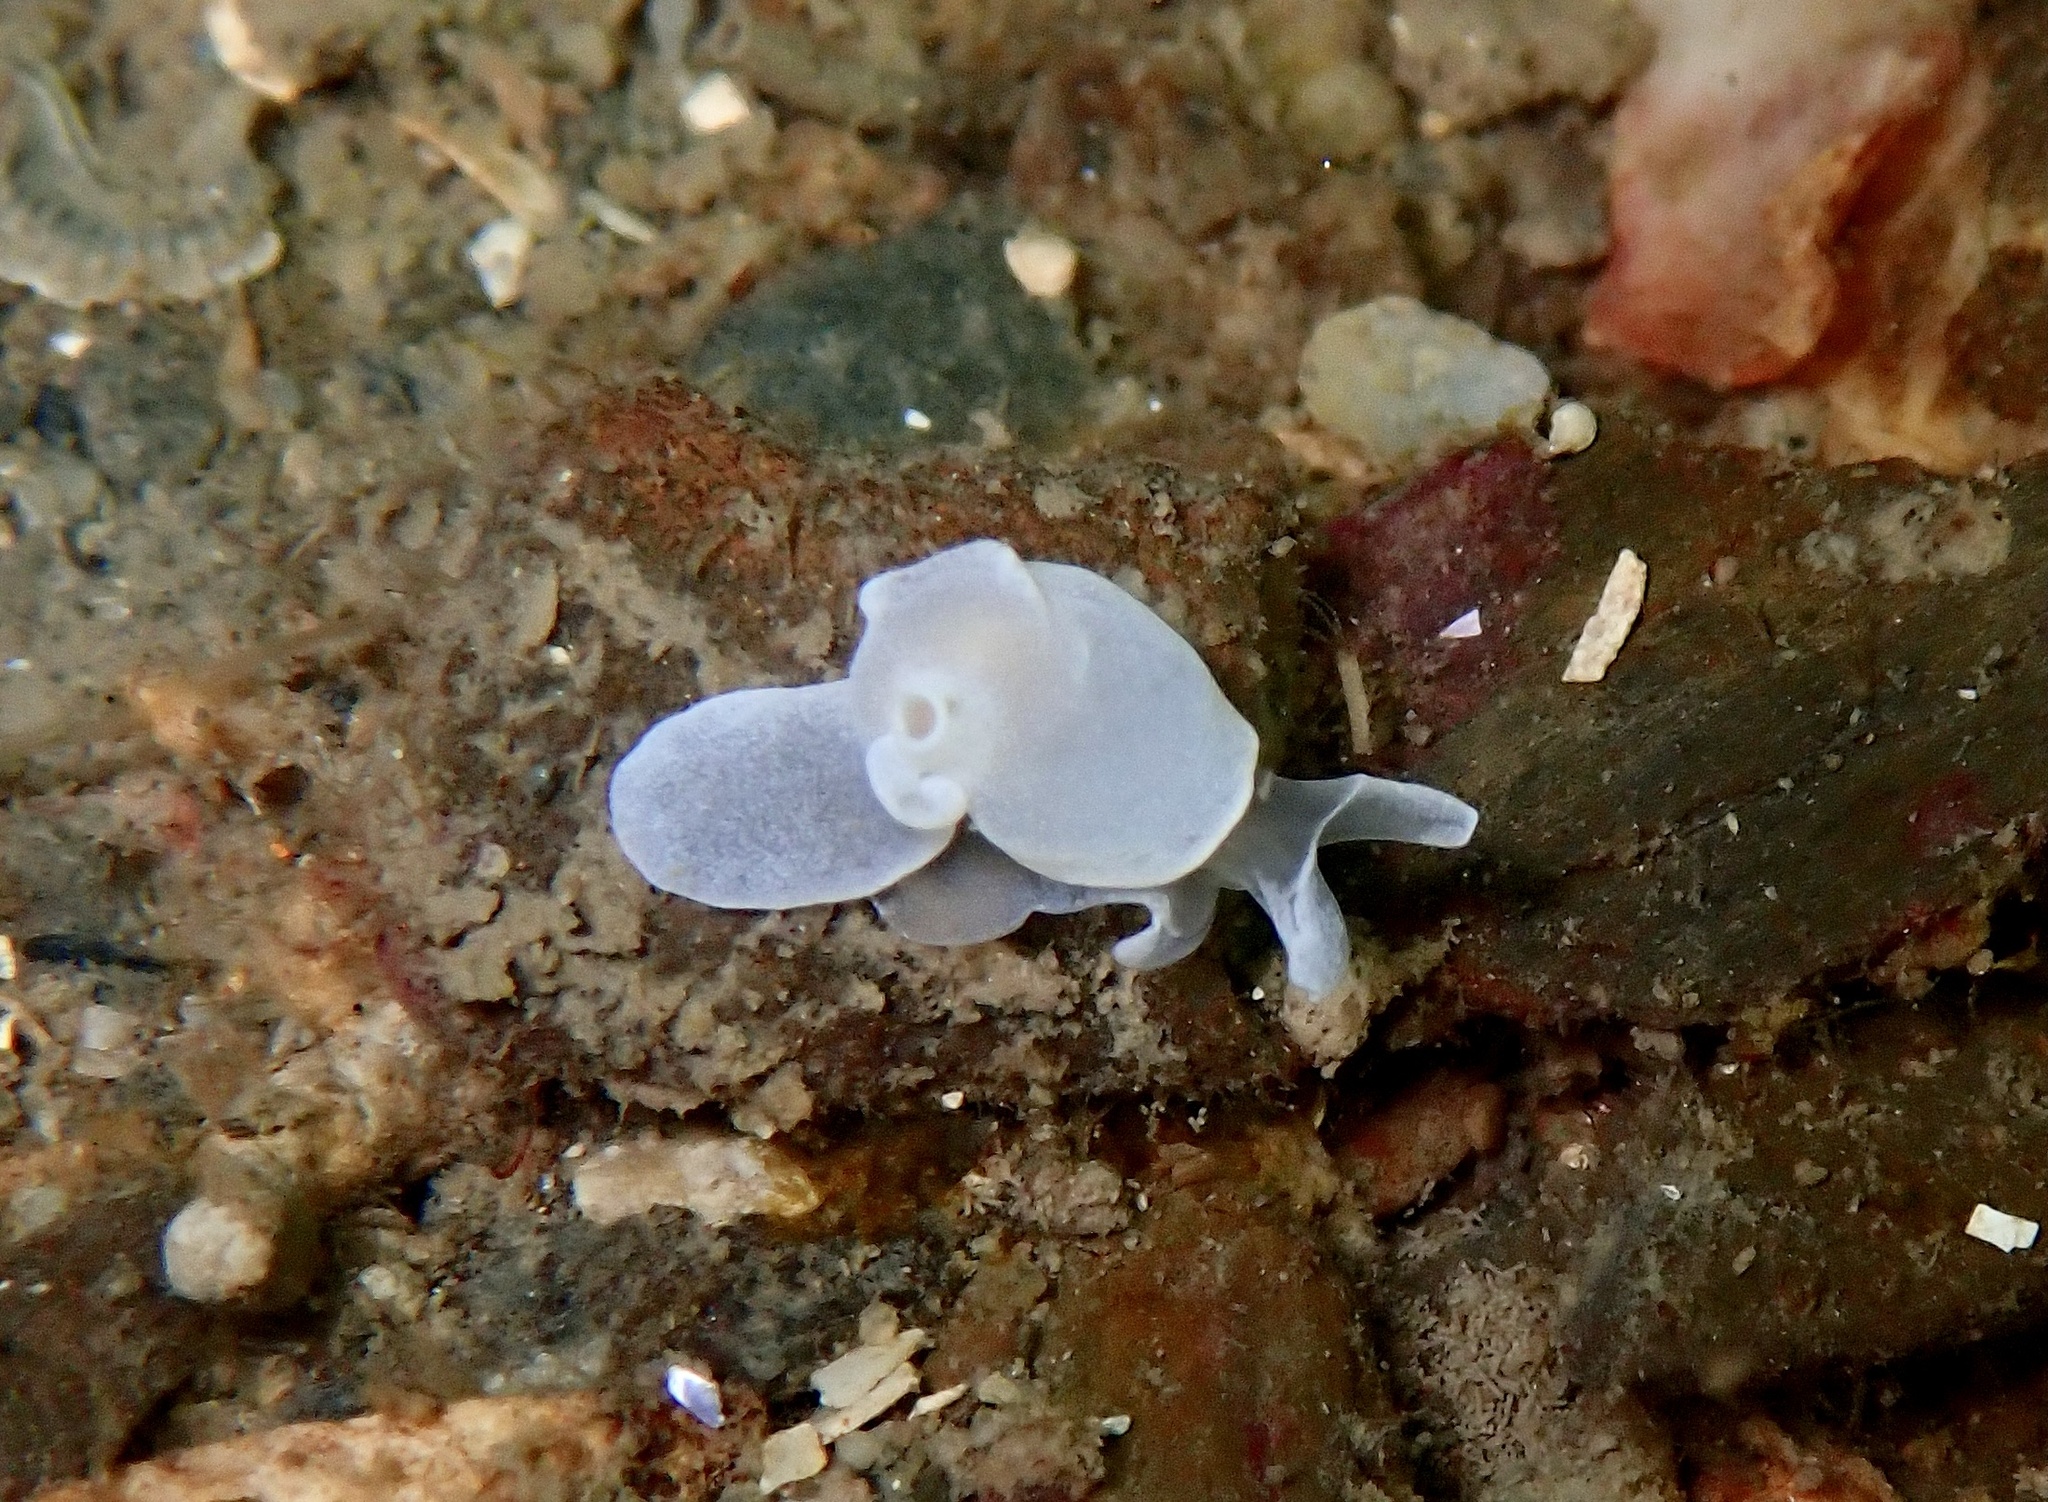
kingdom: Animalia
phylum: Mollusca
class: Gastropoda
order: Cephalaspidea
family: Colpodaspididae
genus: Colpodaspis
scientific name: Colpodaspis pusilla
